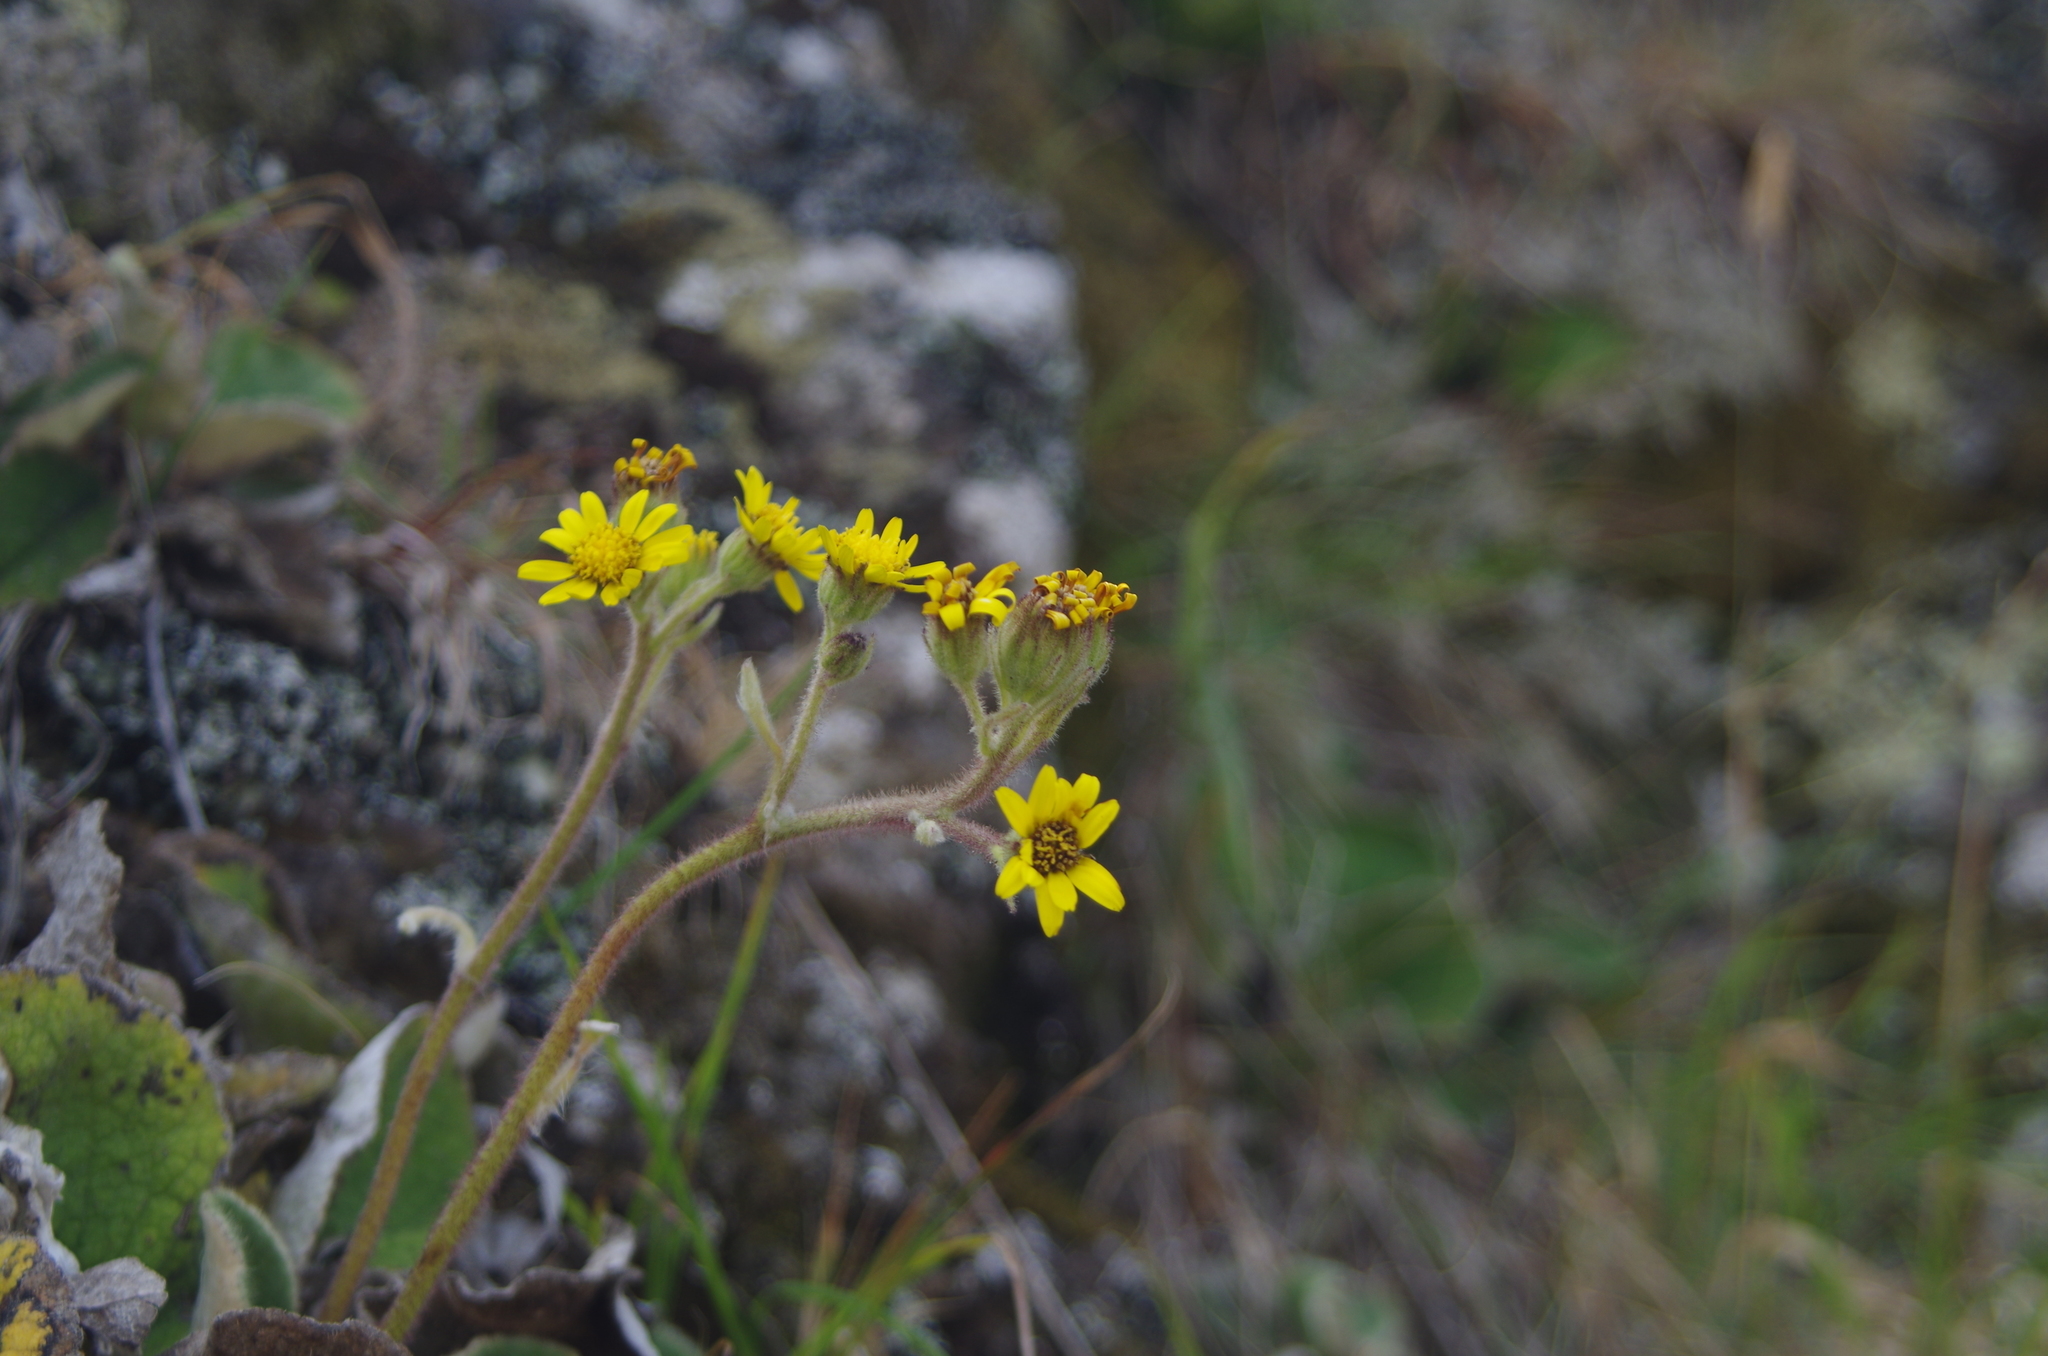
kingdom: Plantae
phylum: Tracheophyta
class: Magnoliopsida
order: Asterales
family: Asteraceae
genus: Brachyglottis
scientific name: Brachyglottis lagopus
